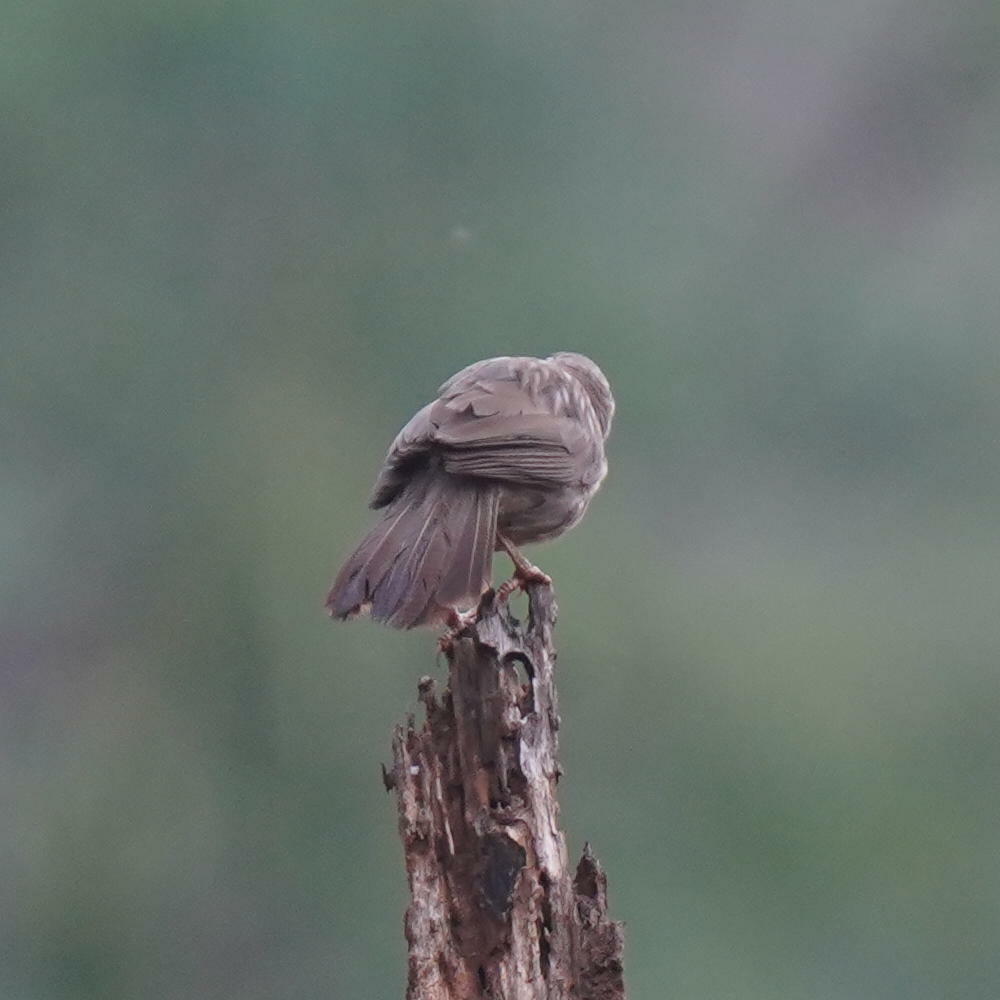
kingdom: Animalia
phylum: Chordata
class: Aves
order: Passeriformes
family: Leiothrichidae
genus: Turdoides
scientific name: Turdoides striata
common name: Jungle babbler
